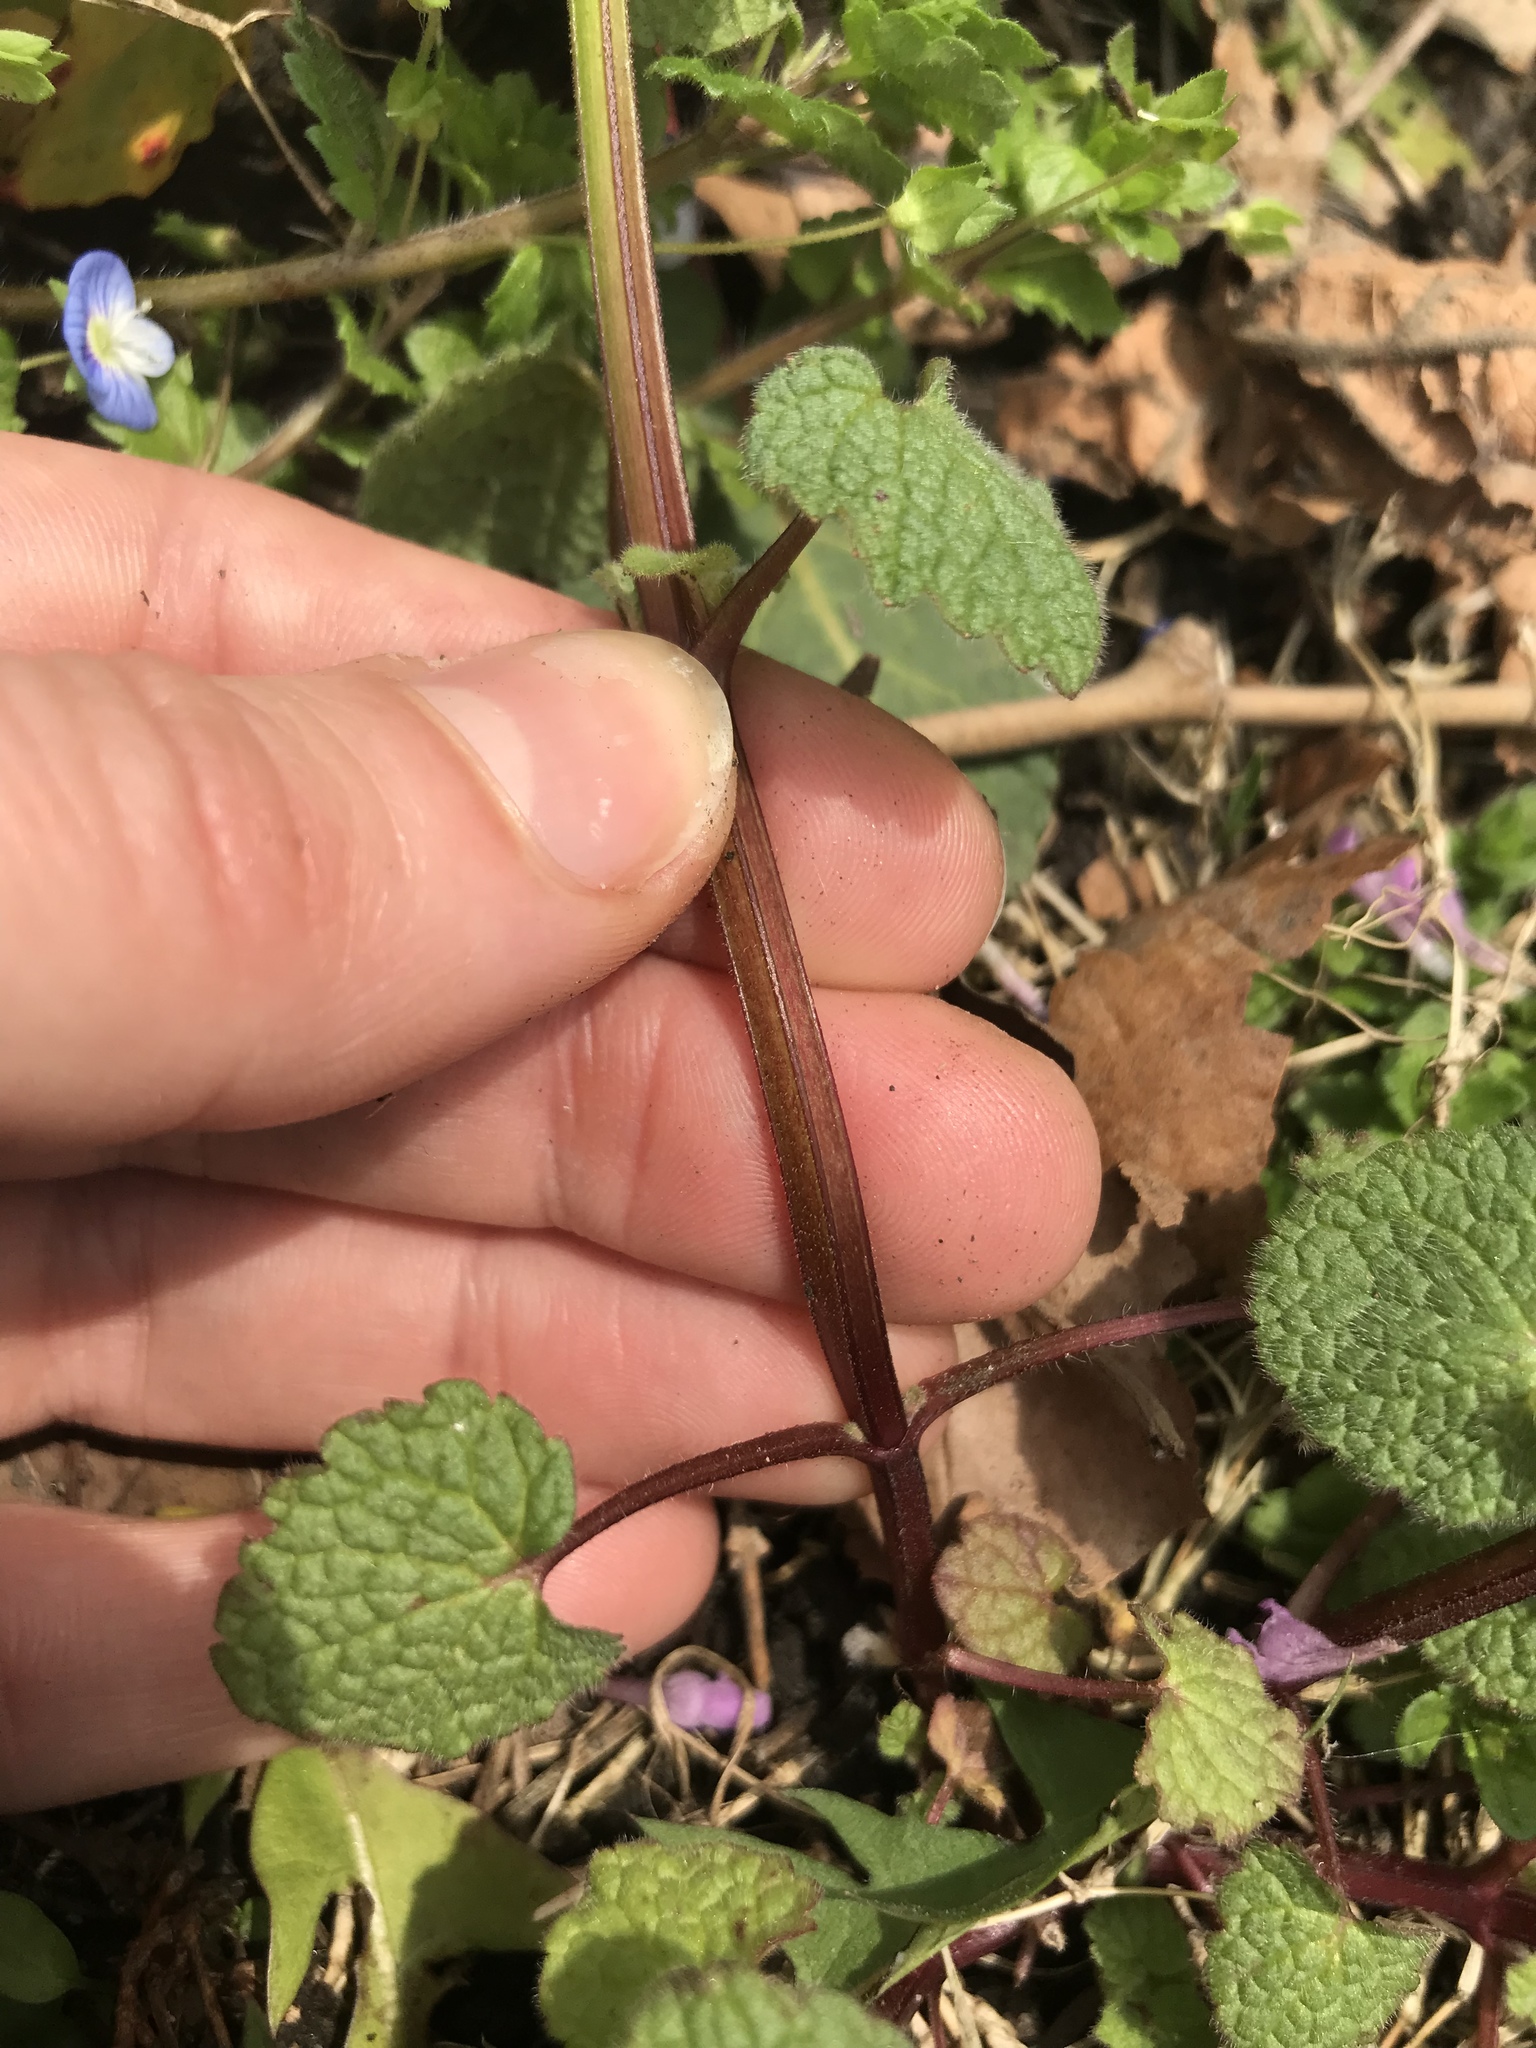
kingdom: Plantae
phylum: Tracheophyta
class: Magnoliopsida
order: Lamiales
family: Lamiaceae
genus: Lamium
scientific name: Lamium purpureum
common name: Red dead-nettle
